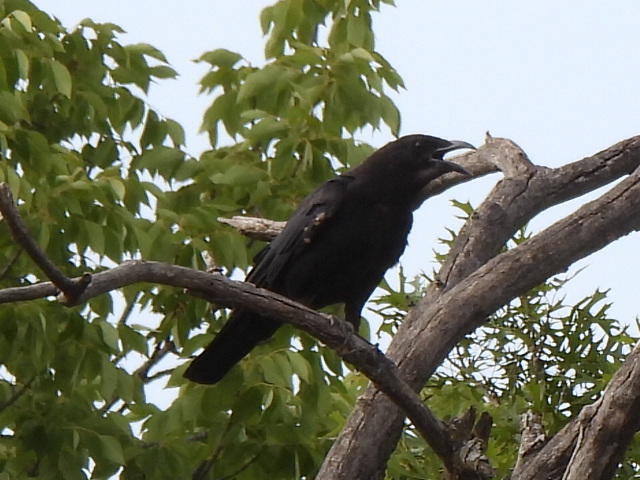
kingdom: Animalia
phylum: Chordata
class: Aves
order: Passeriformes
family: Corvidae
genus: Corvus
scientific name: Corvus brachyrhynchos
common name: American crow
